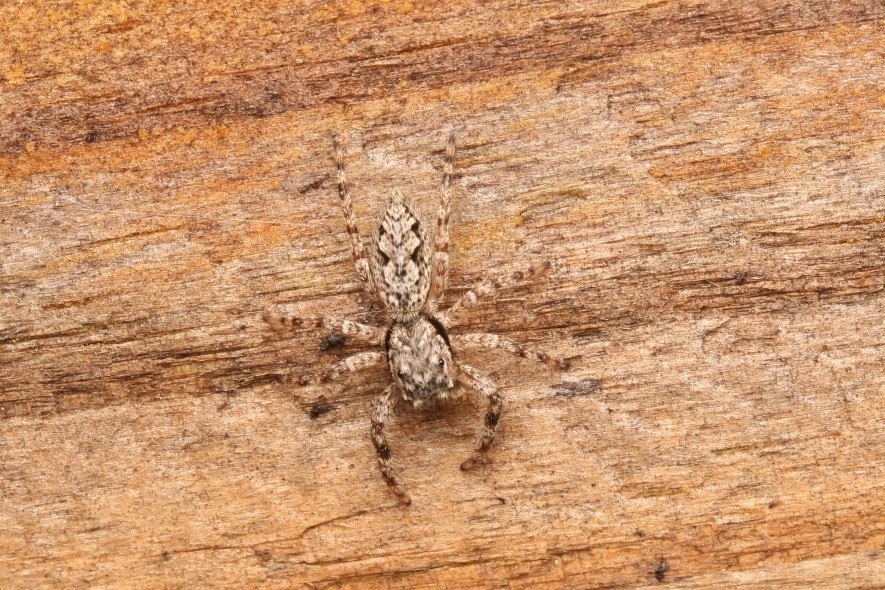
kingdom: Animalia
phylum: Arthropoda
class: Arachnida
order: Araneae
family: Salticidae
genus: Platycryptus
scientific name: Platycryptus undatus
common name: Tan jumping spider
